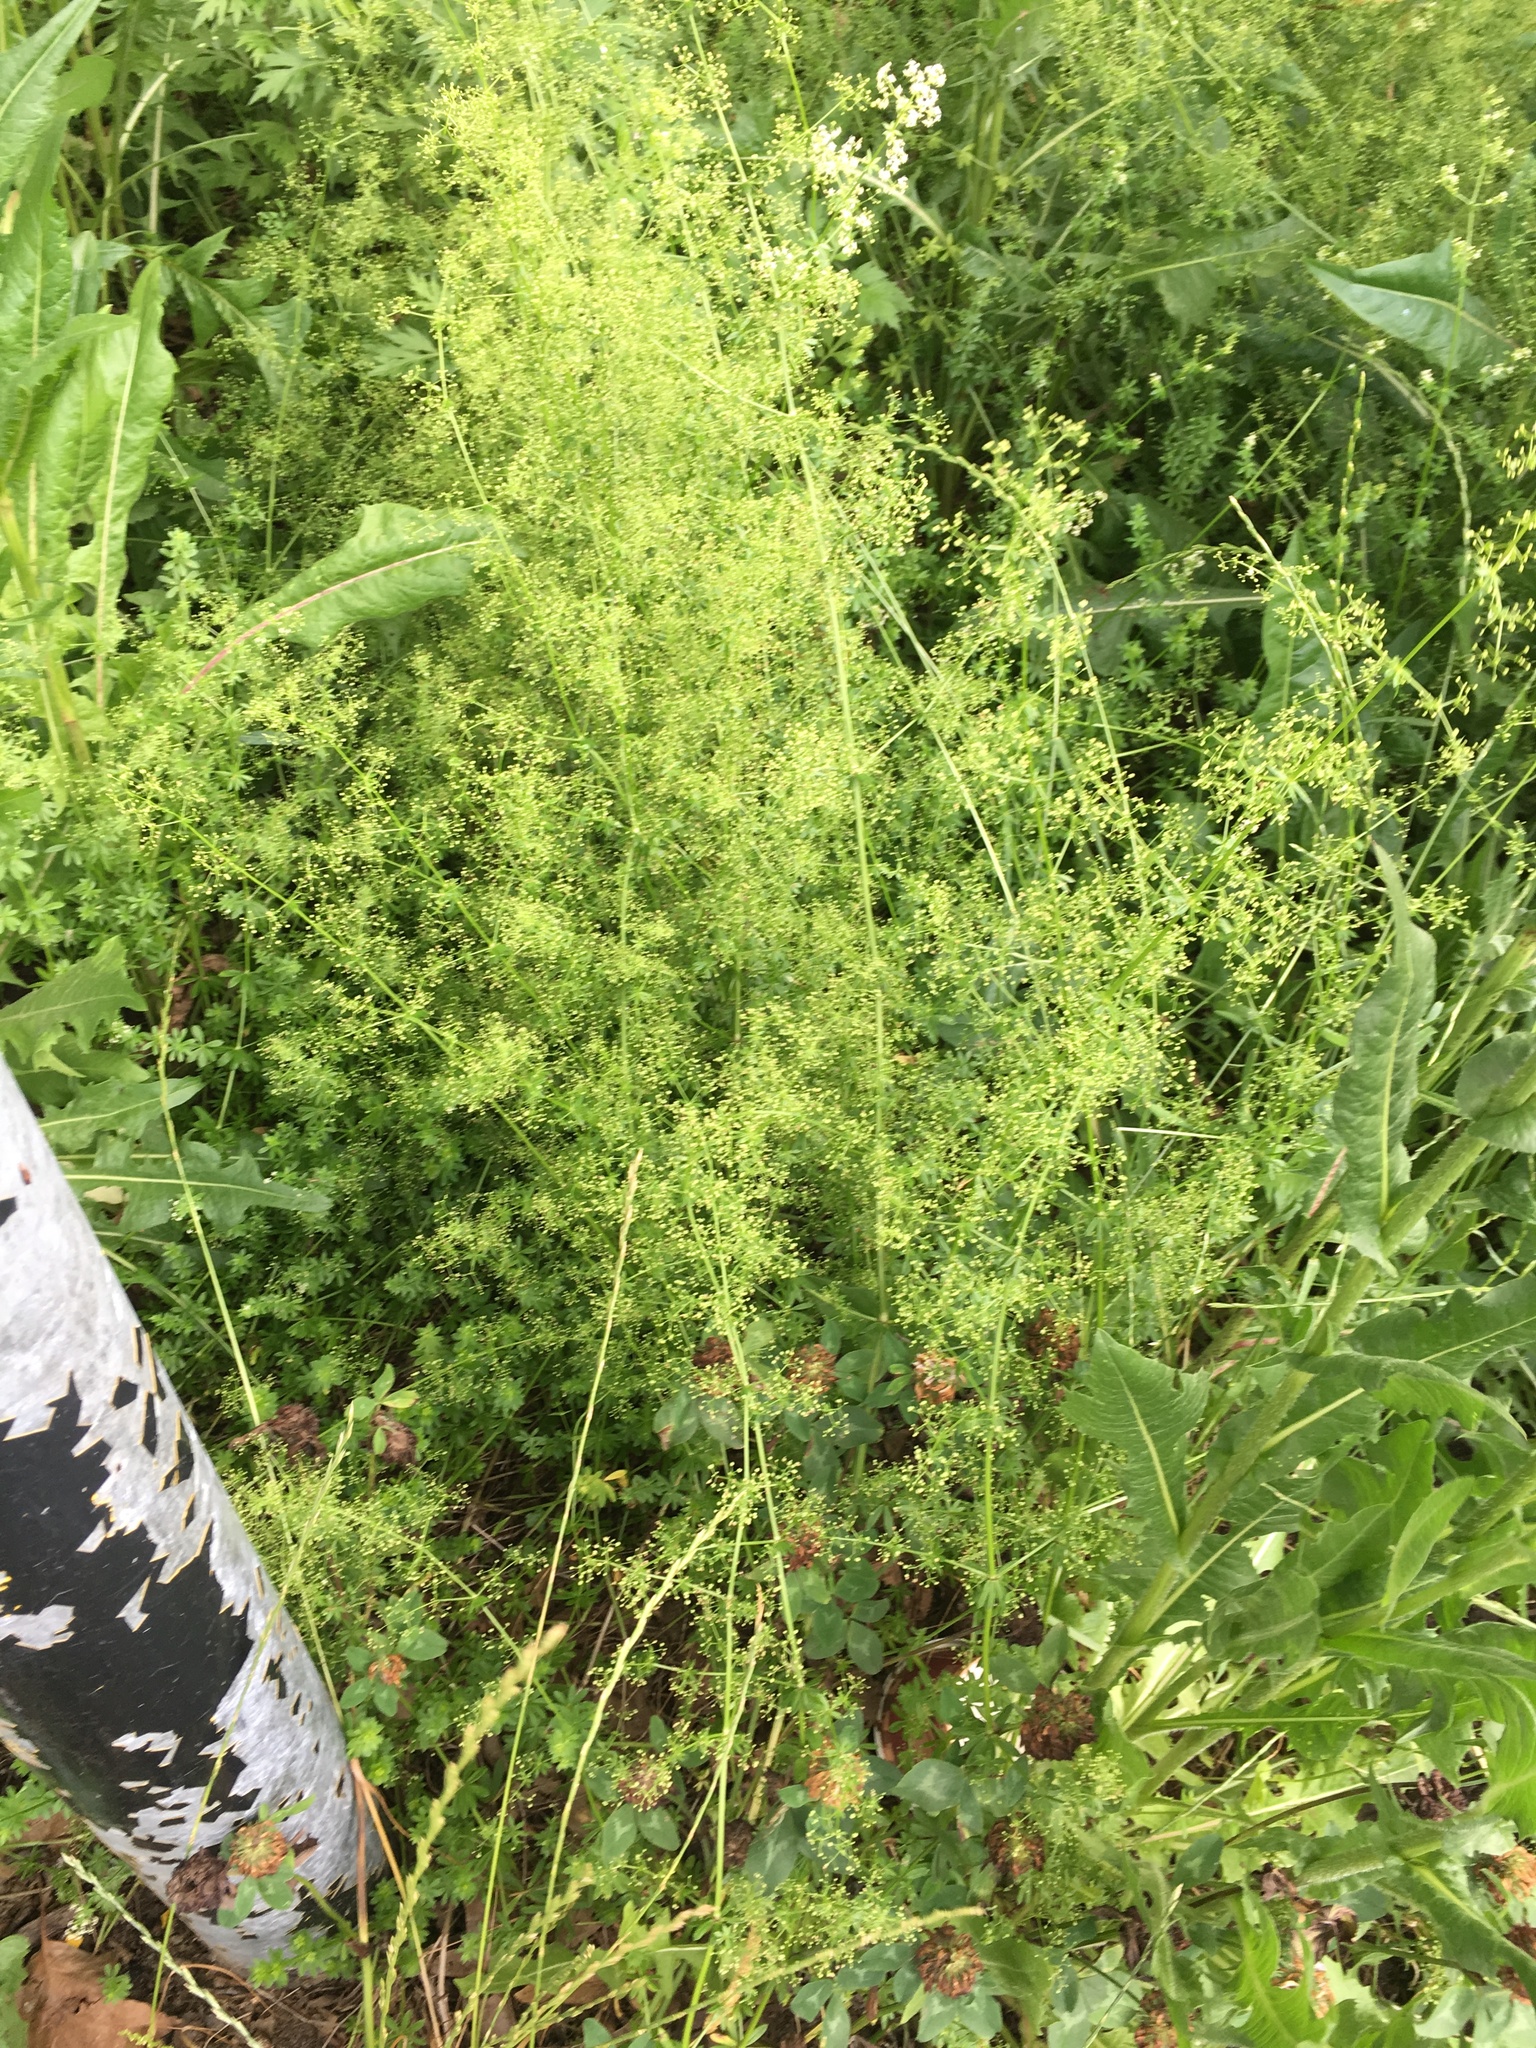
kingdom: Plantae
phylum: Tracheophyta
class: Magnoliopsida
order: Gentianales
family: Rubiaceae
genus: Galium
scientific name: Galium album
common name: White bedstraw
